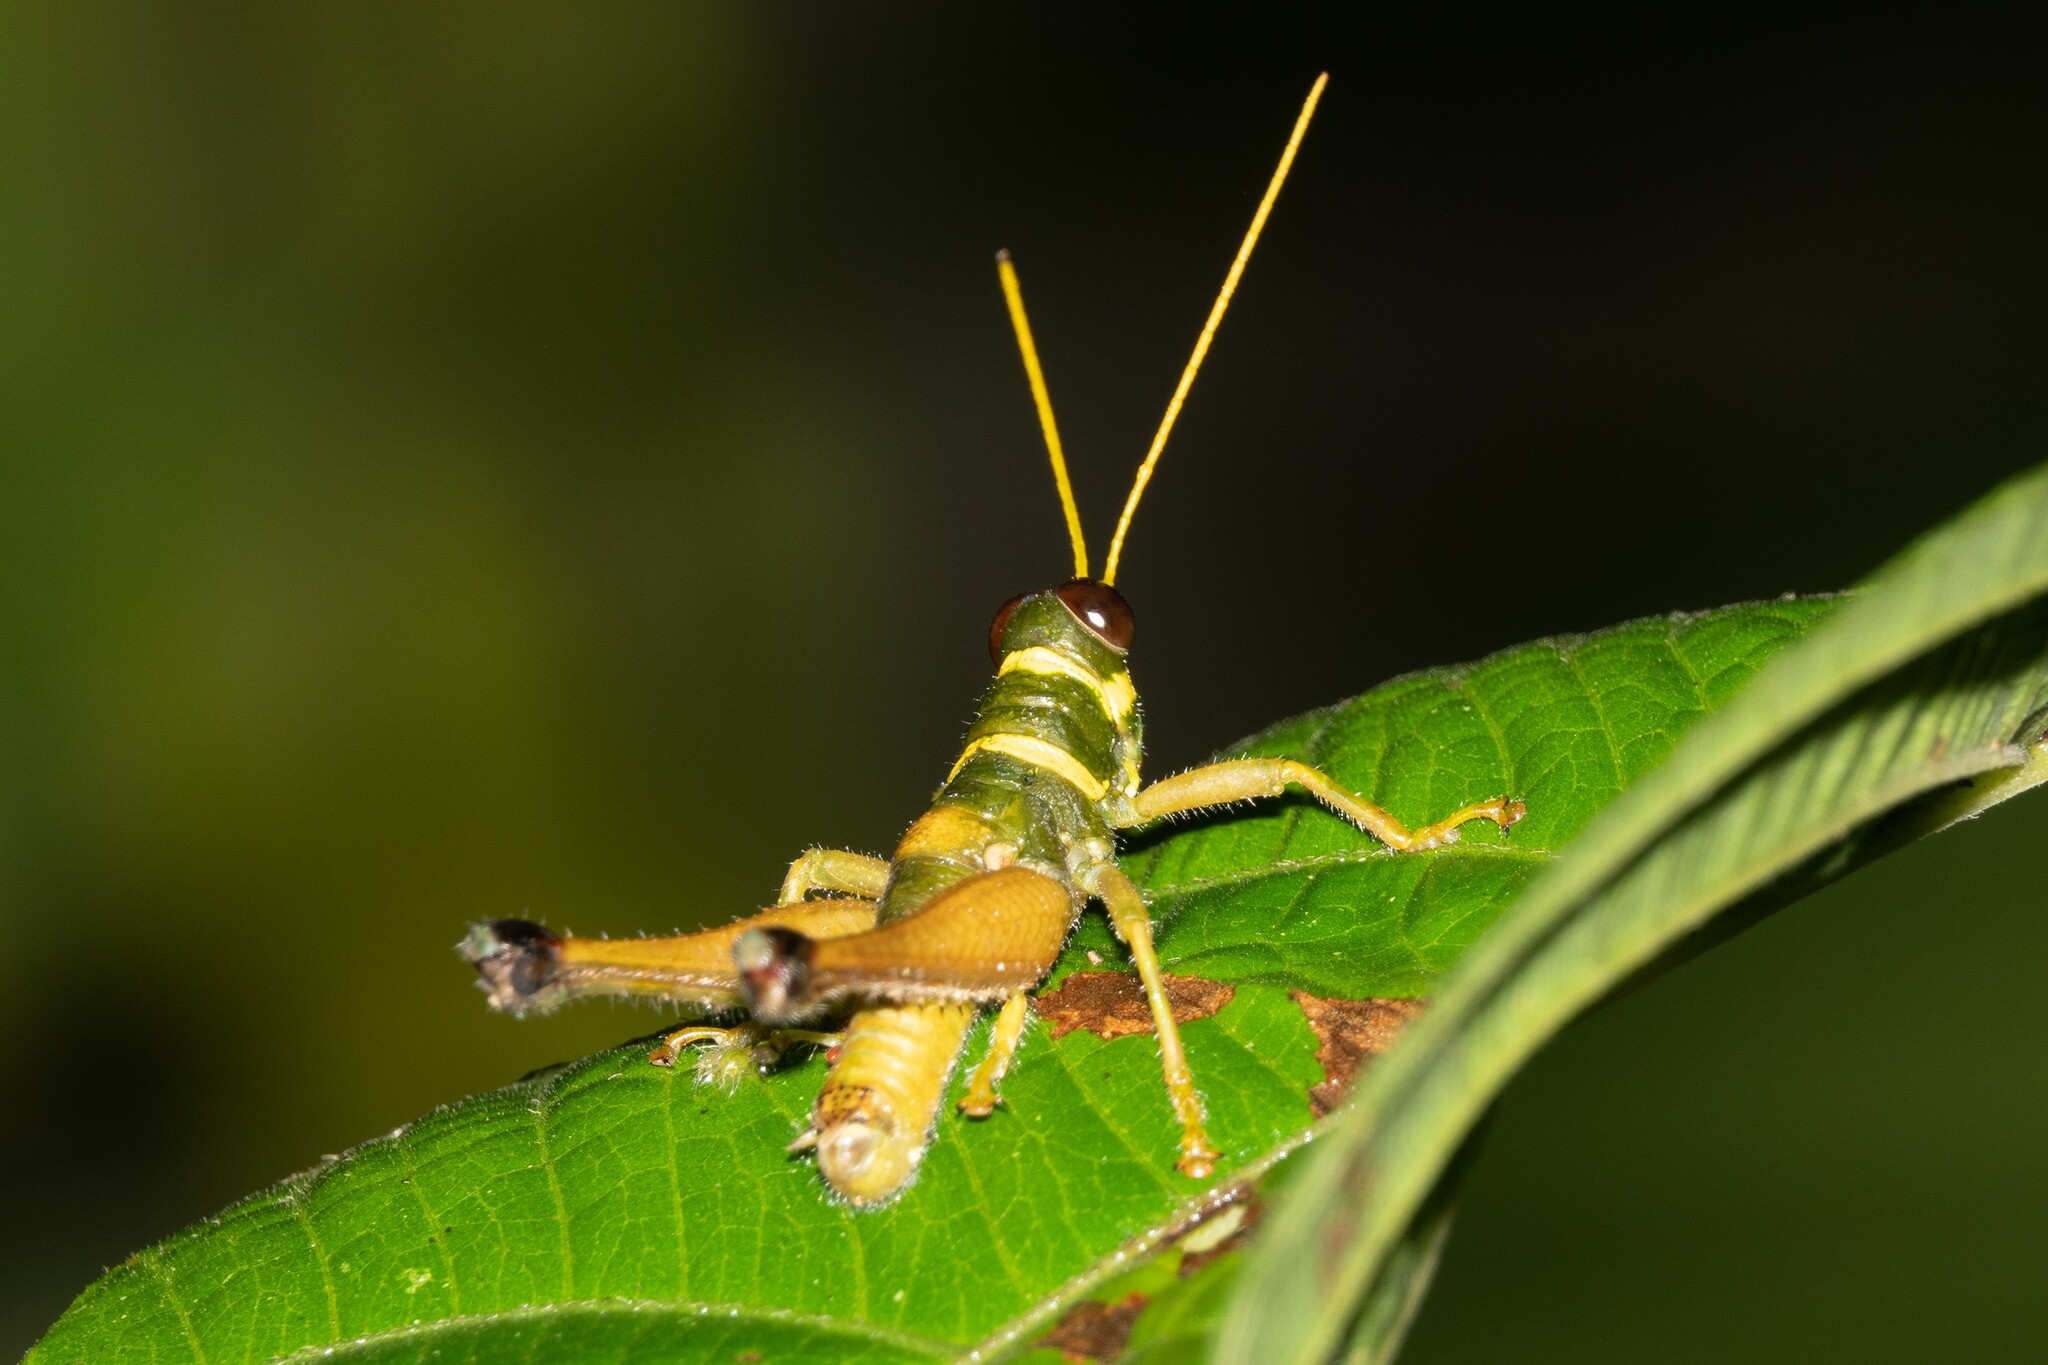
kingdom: Animalia
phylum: Arthropoda
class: Insecta
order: Orthoptera
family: Acrididae
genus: Eucosmetacris
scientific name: Eucosmetacris cingulata
